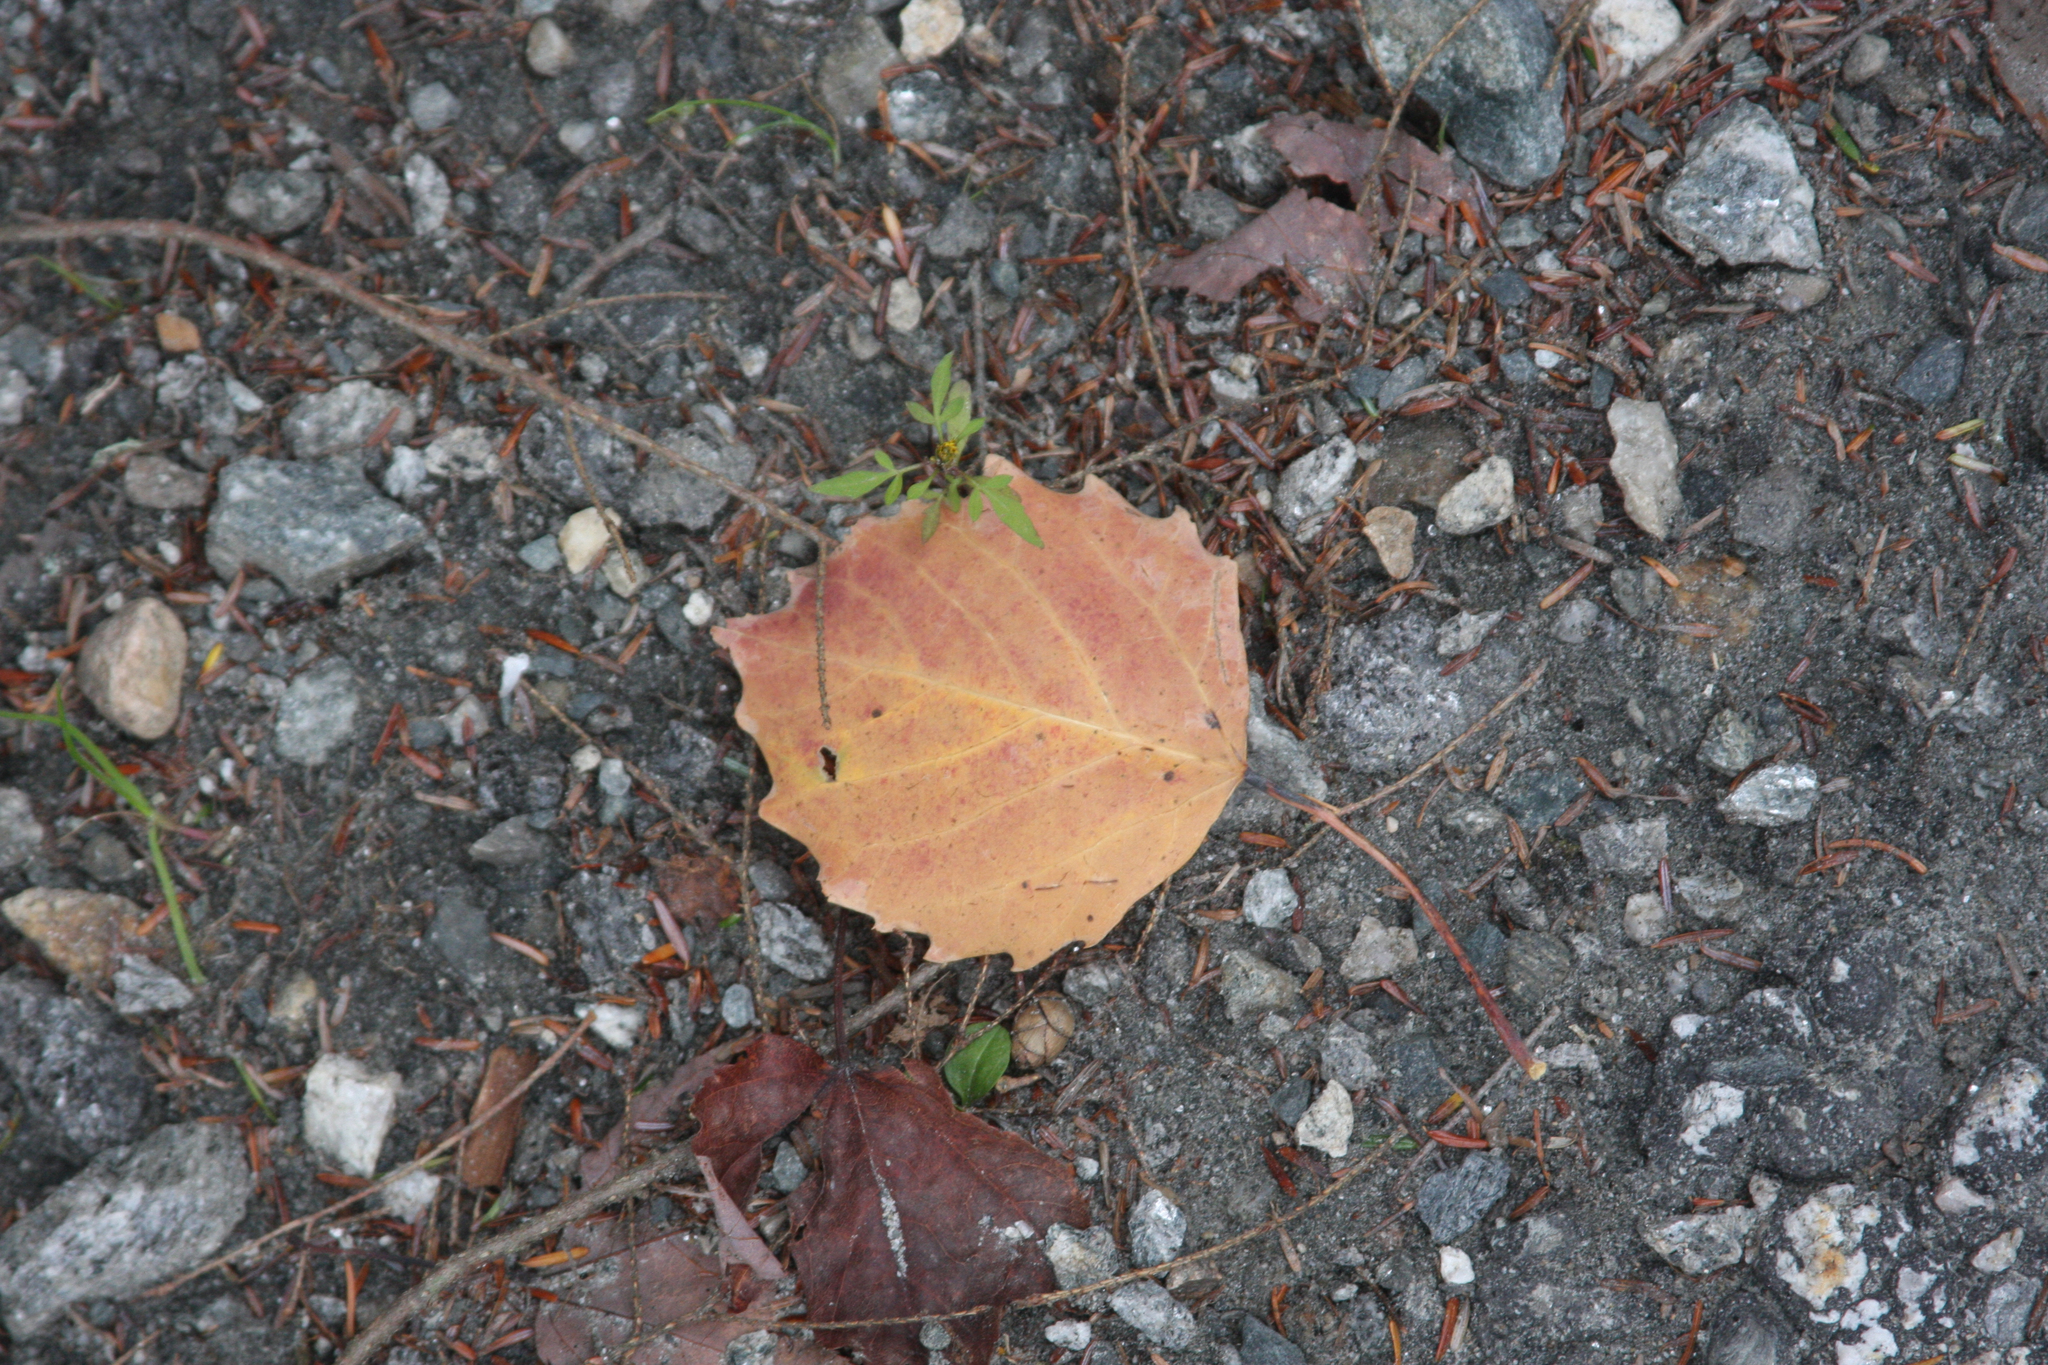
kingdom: Plantae
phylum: Tracheophyta
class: Magnoliopsida
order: Malpighiales
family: Salicaceae
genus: Populus
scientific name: Populus grandidentata
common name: Bigtooth aspen
